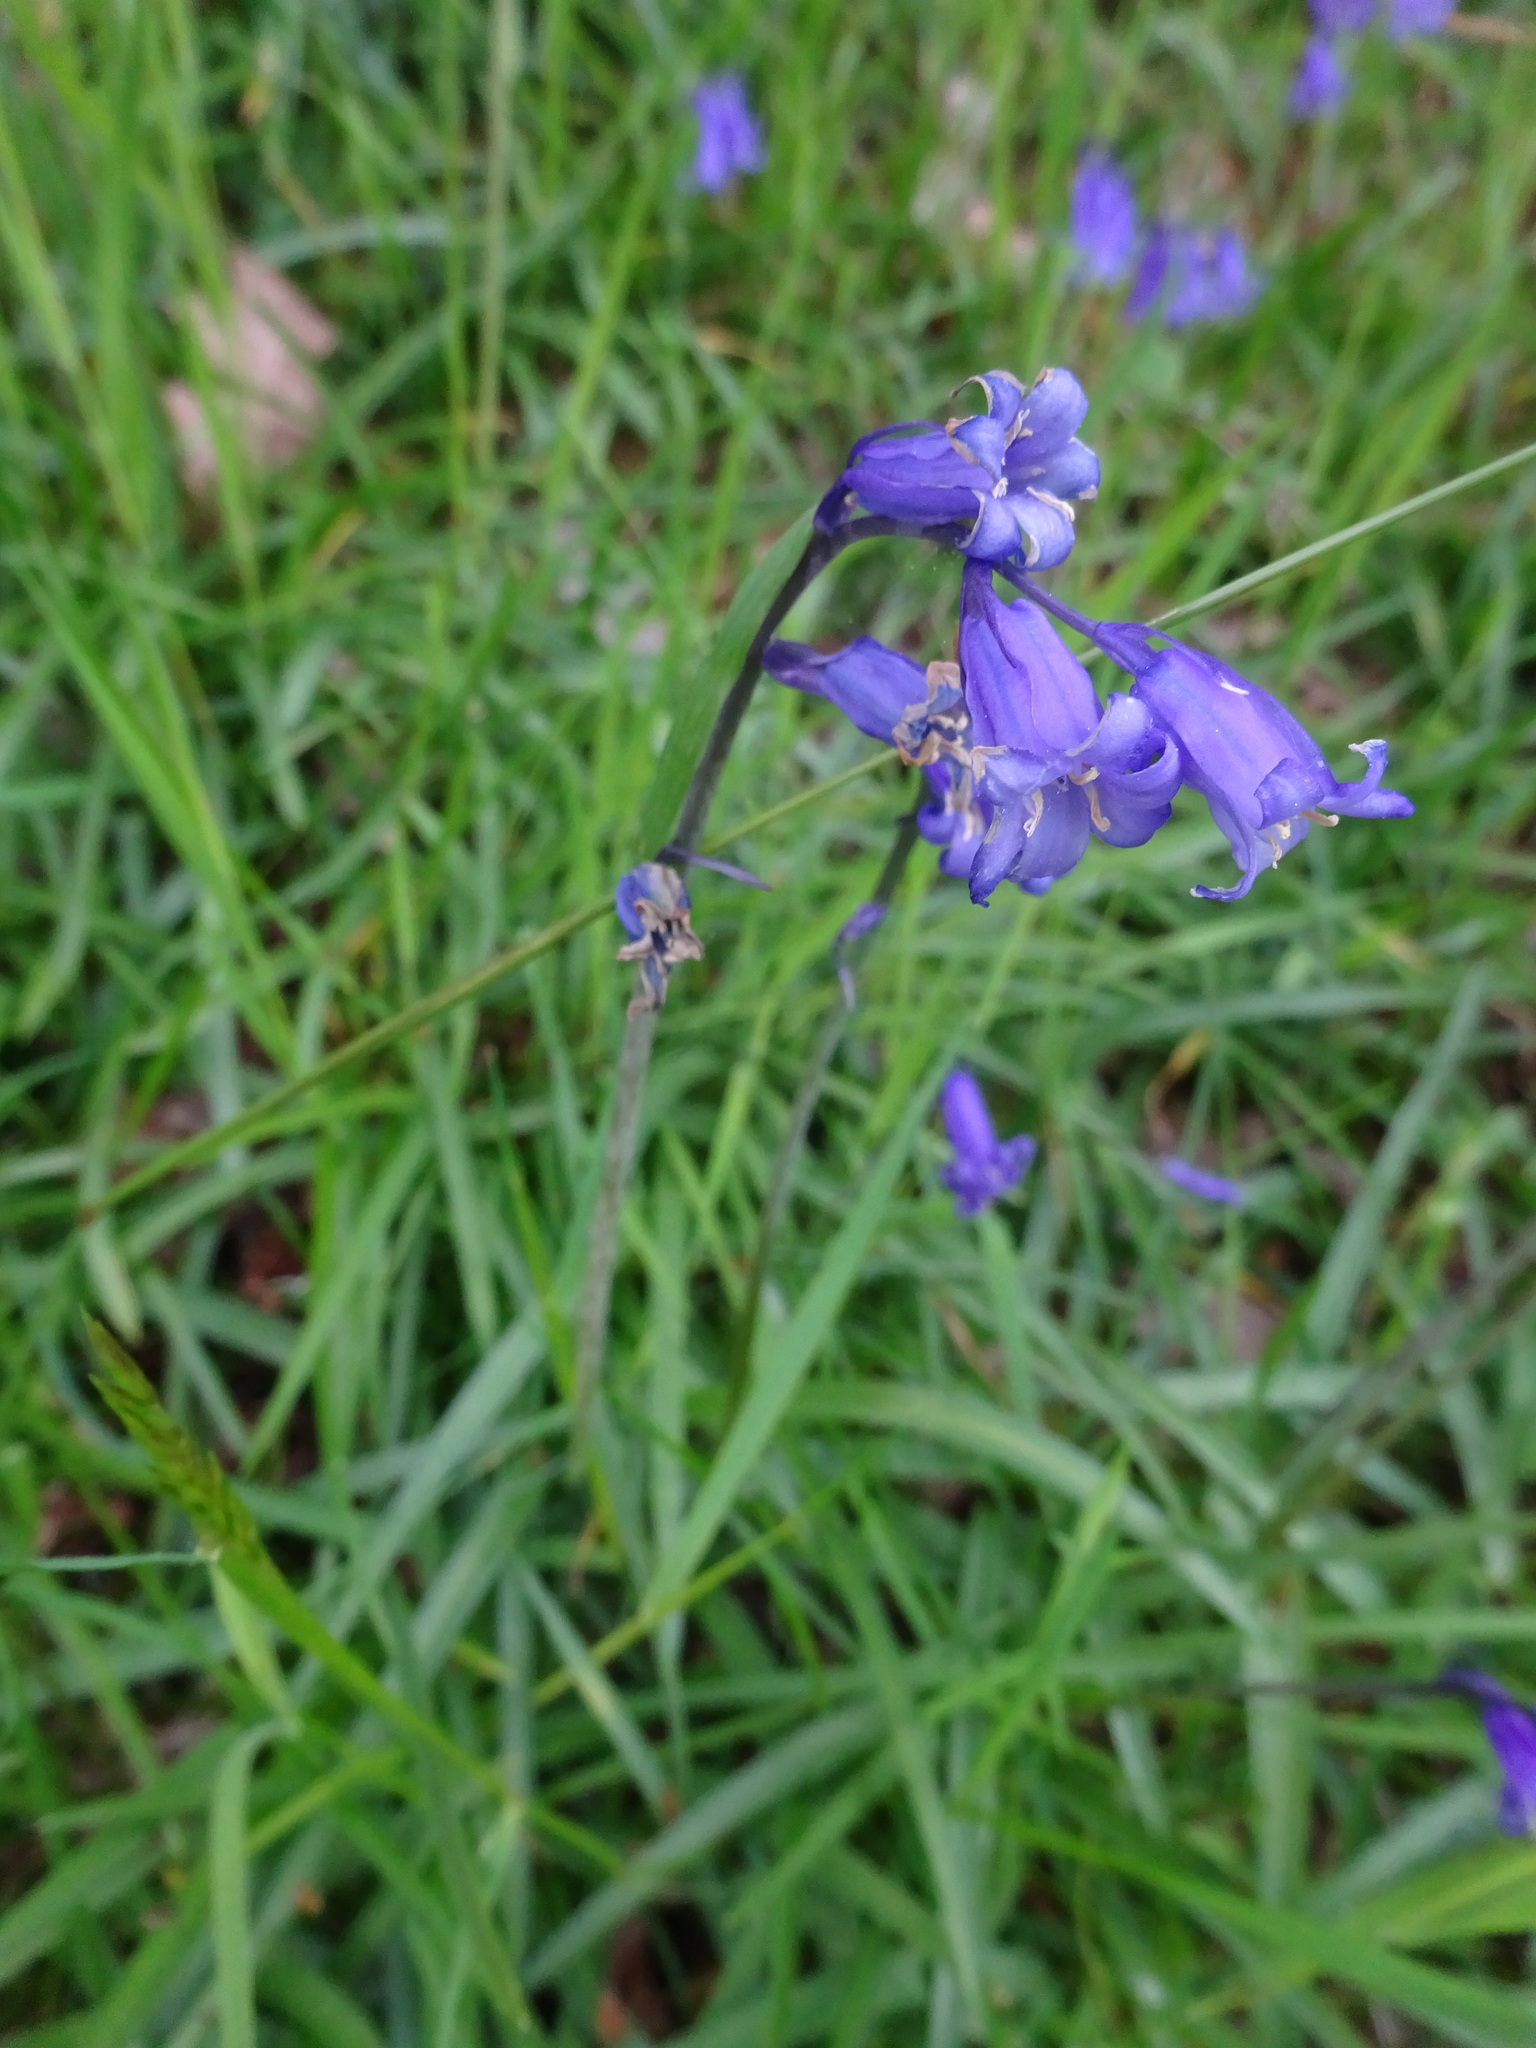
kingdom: Plantae
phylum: Tracheophyta
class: Liliopsida
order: Asparagales
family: Asparagaceae
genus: Hyacinthoides
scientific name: Hyacinthoides non-scripta
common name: Bluebell
